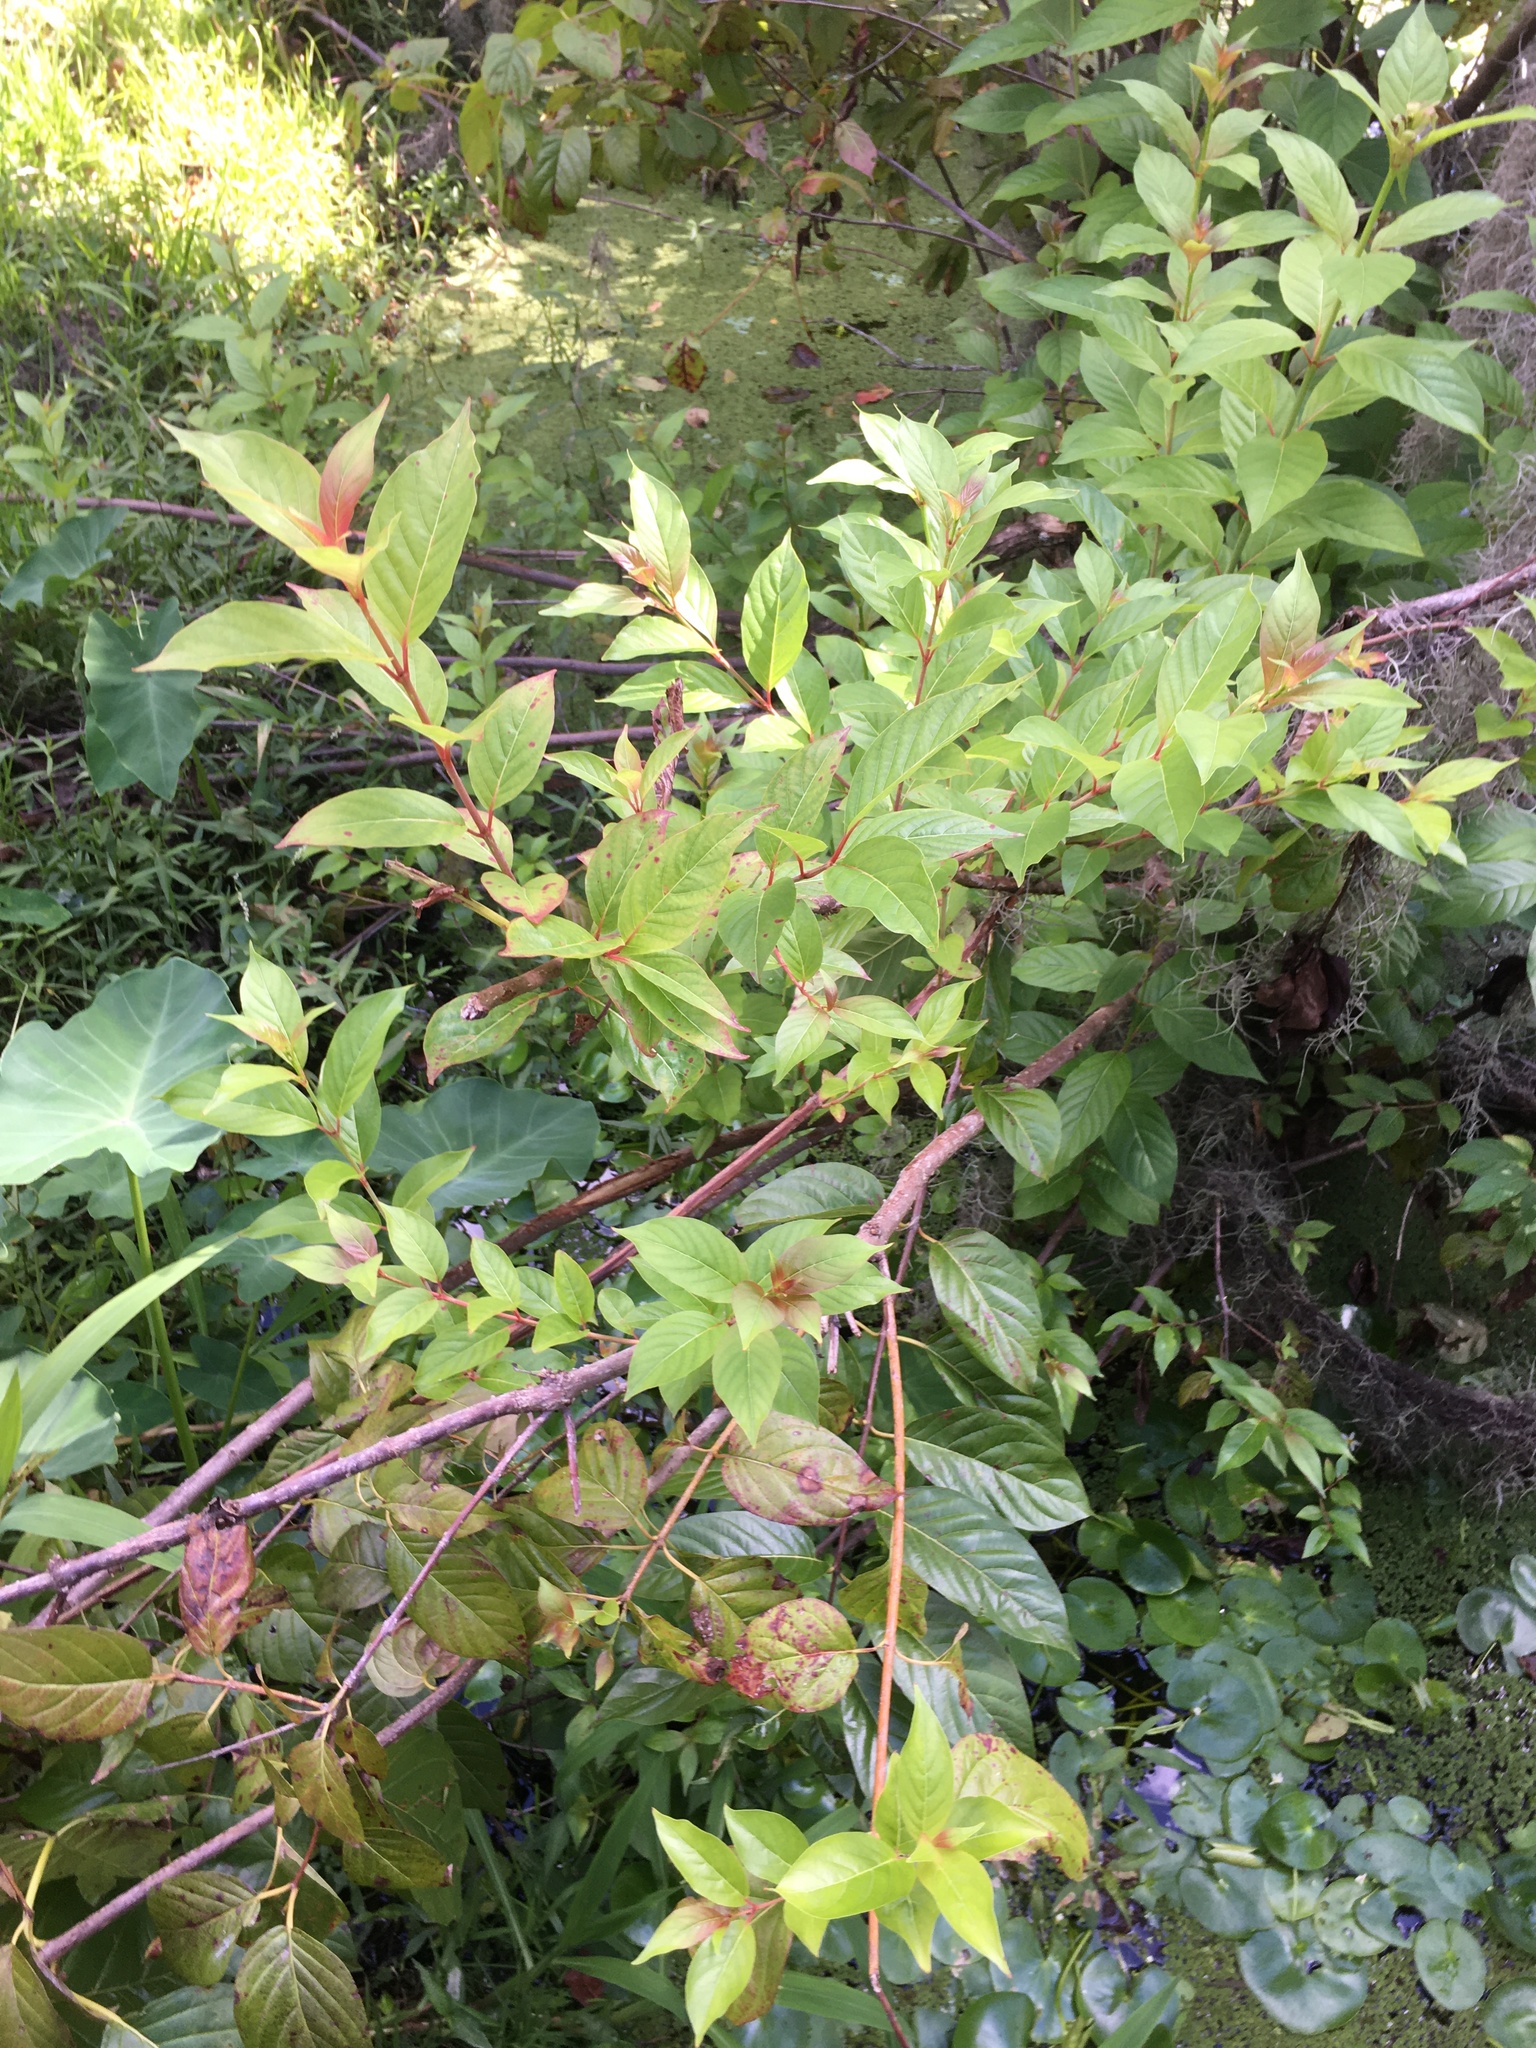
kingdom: Plantae
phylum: Tracheophyta
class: Magnoliopsida
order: Gentianales
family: Rubiaceae
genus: Cephalanthus
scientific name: Cephalanthus occidentalis
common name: Button-willow
